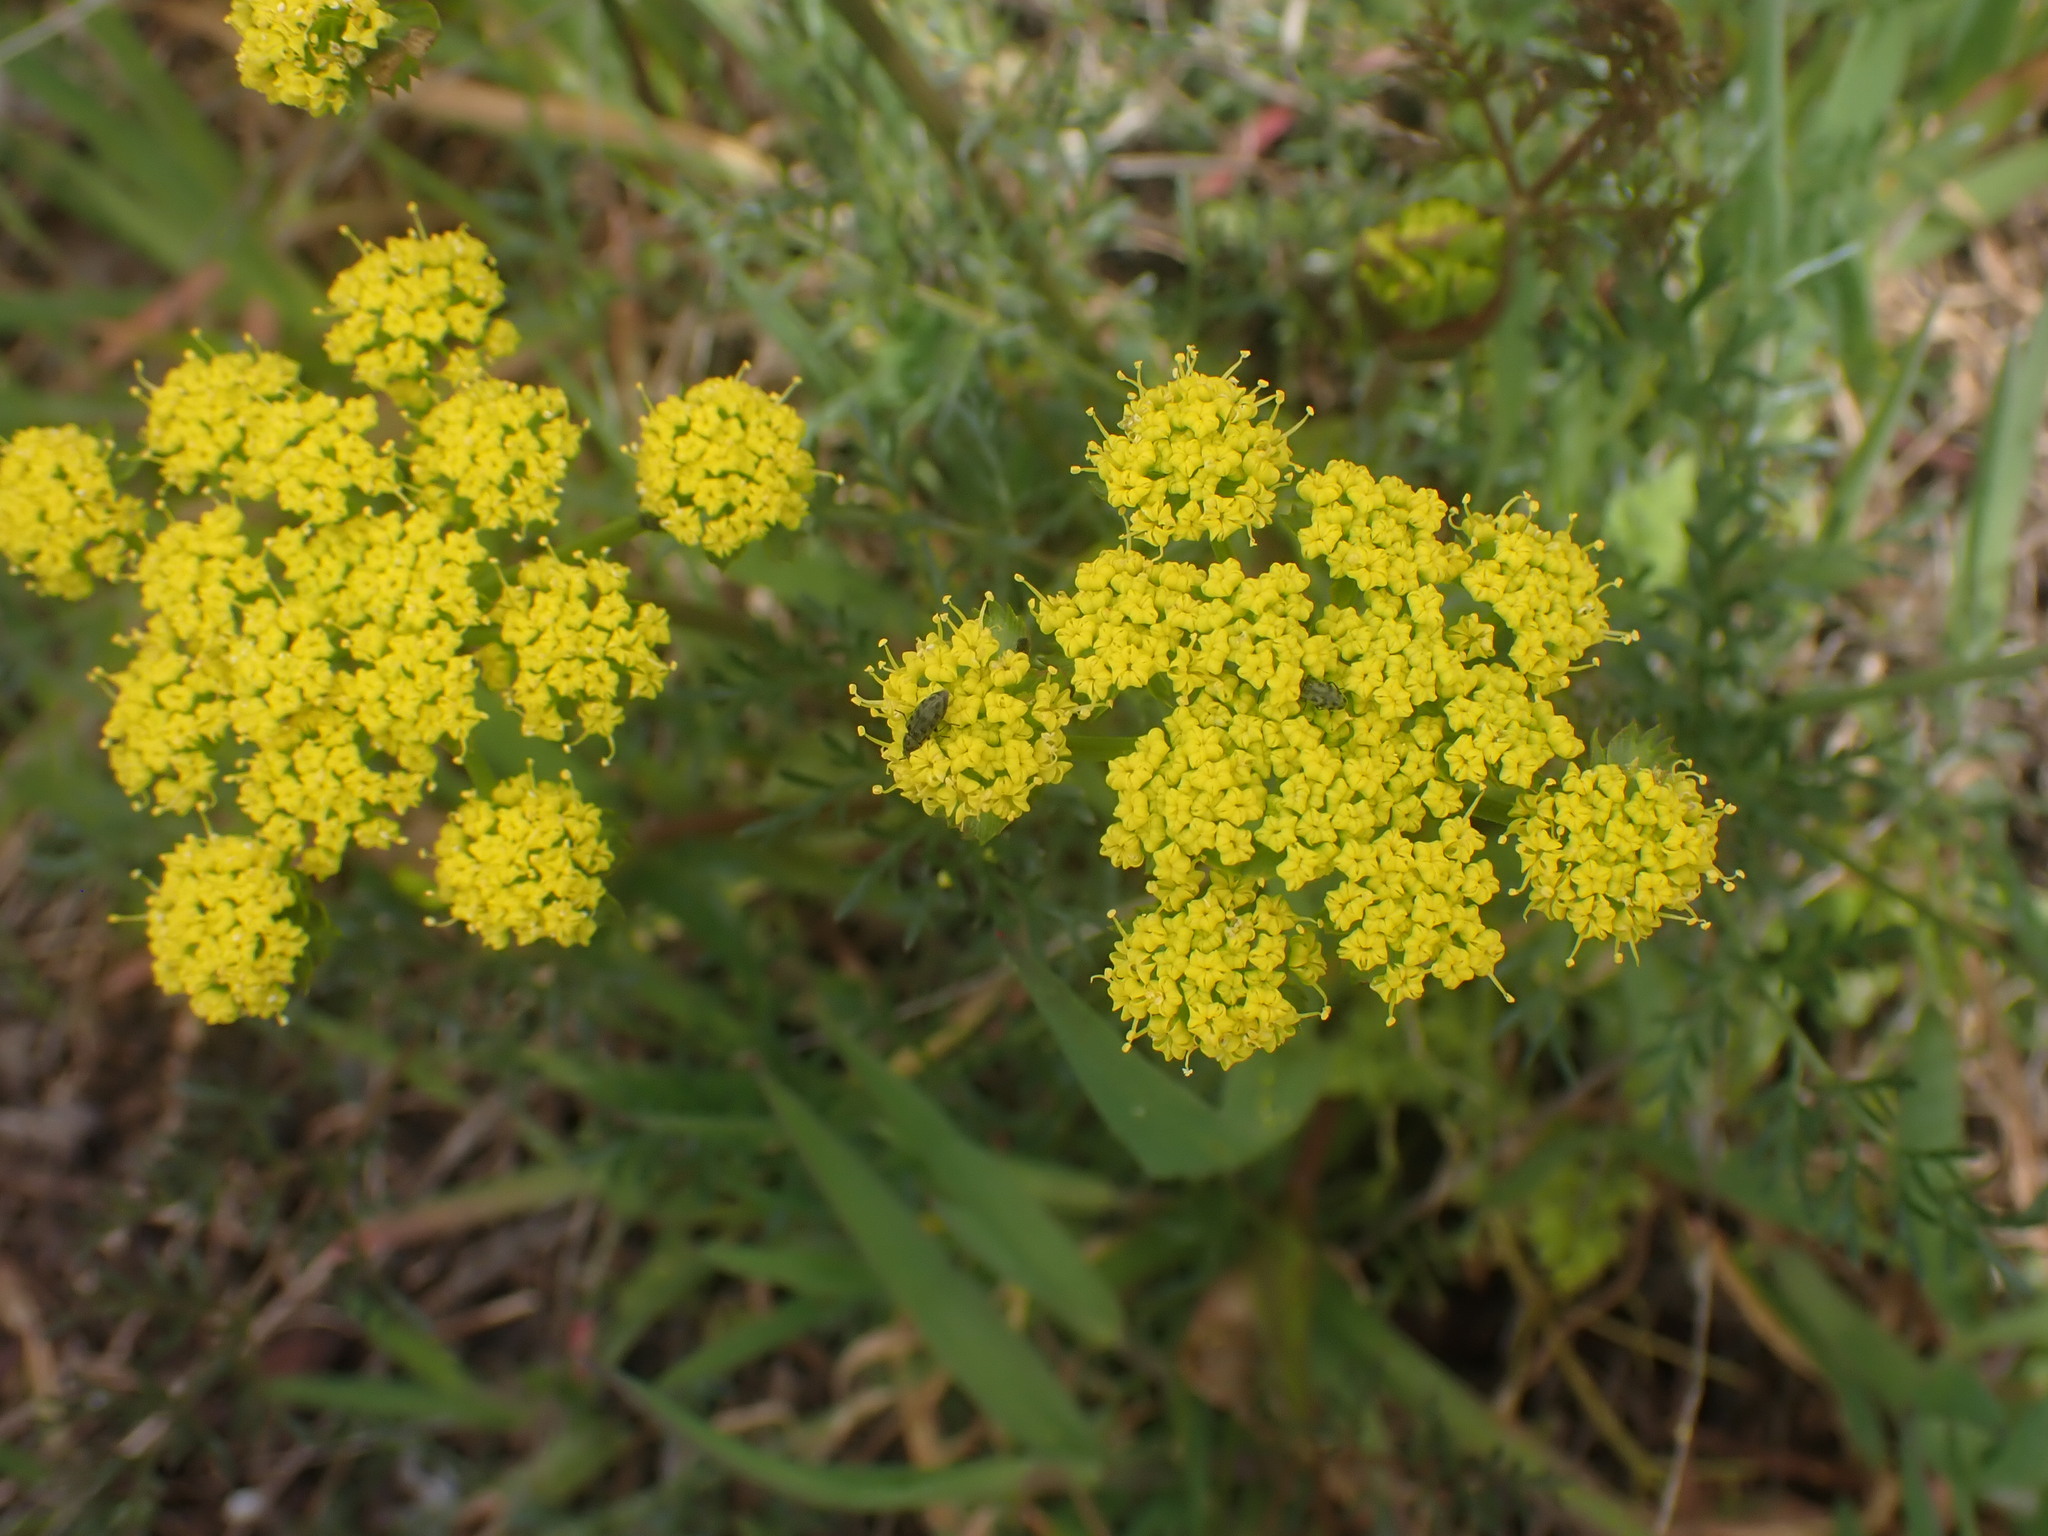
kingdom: Plantae
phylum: Tracheophyta
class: Magnoliopsida
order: Apiales
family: Apiaceae
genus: Lomatium
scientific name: Lomatium utriculatum
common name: Fine-leaf desert-parsley
